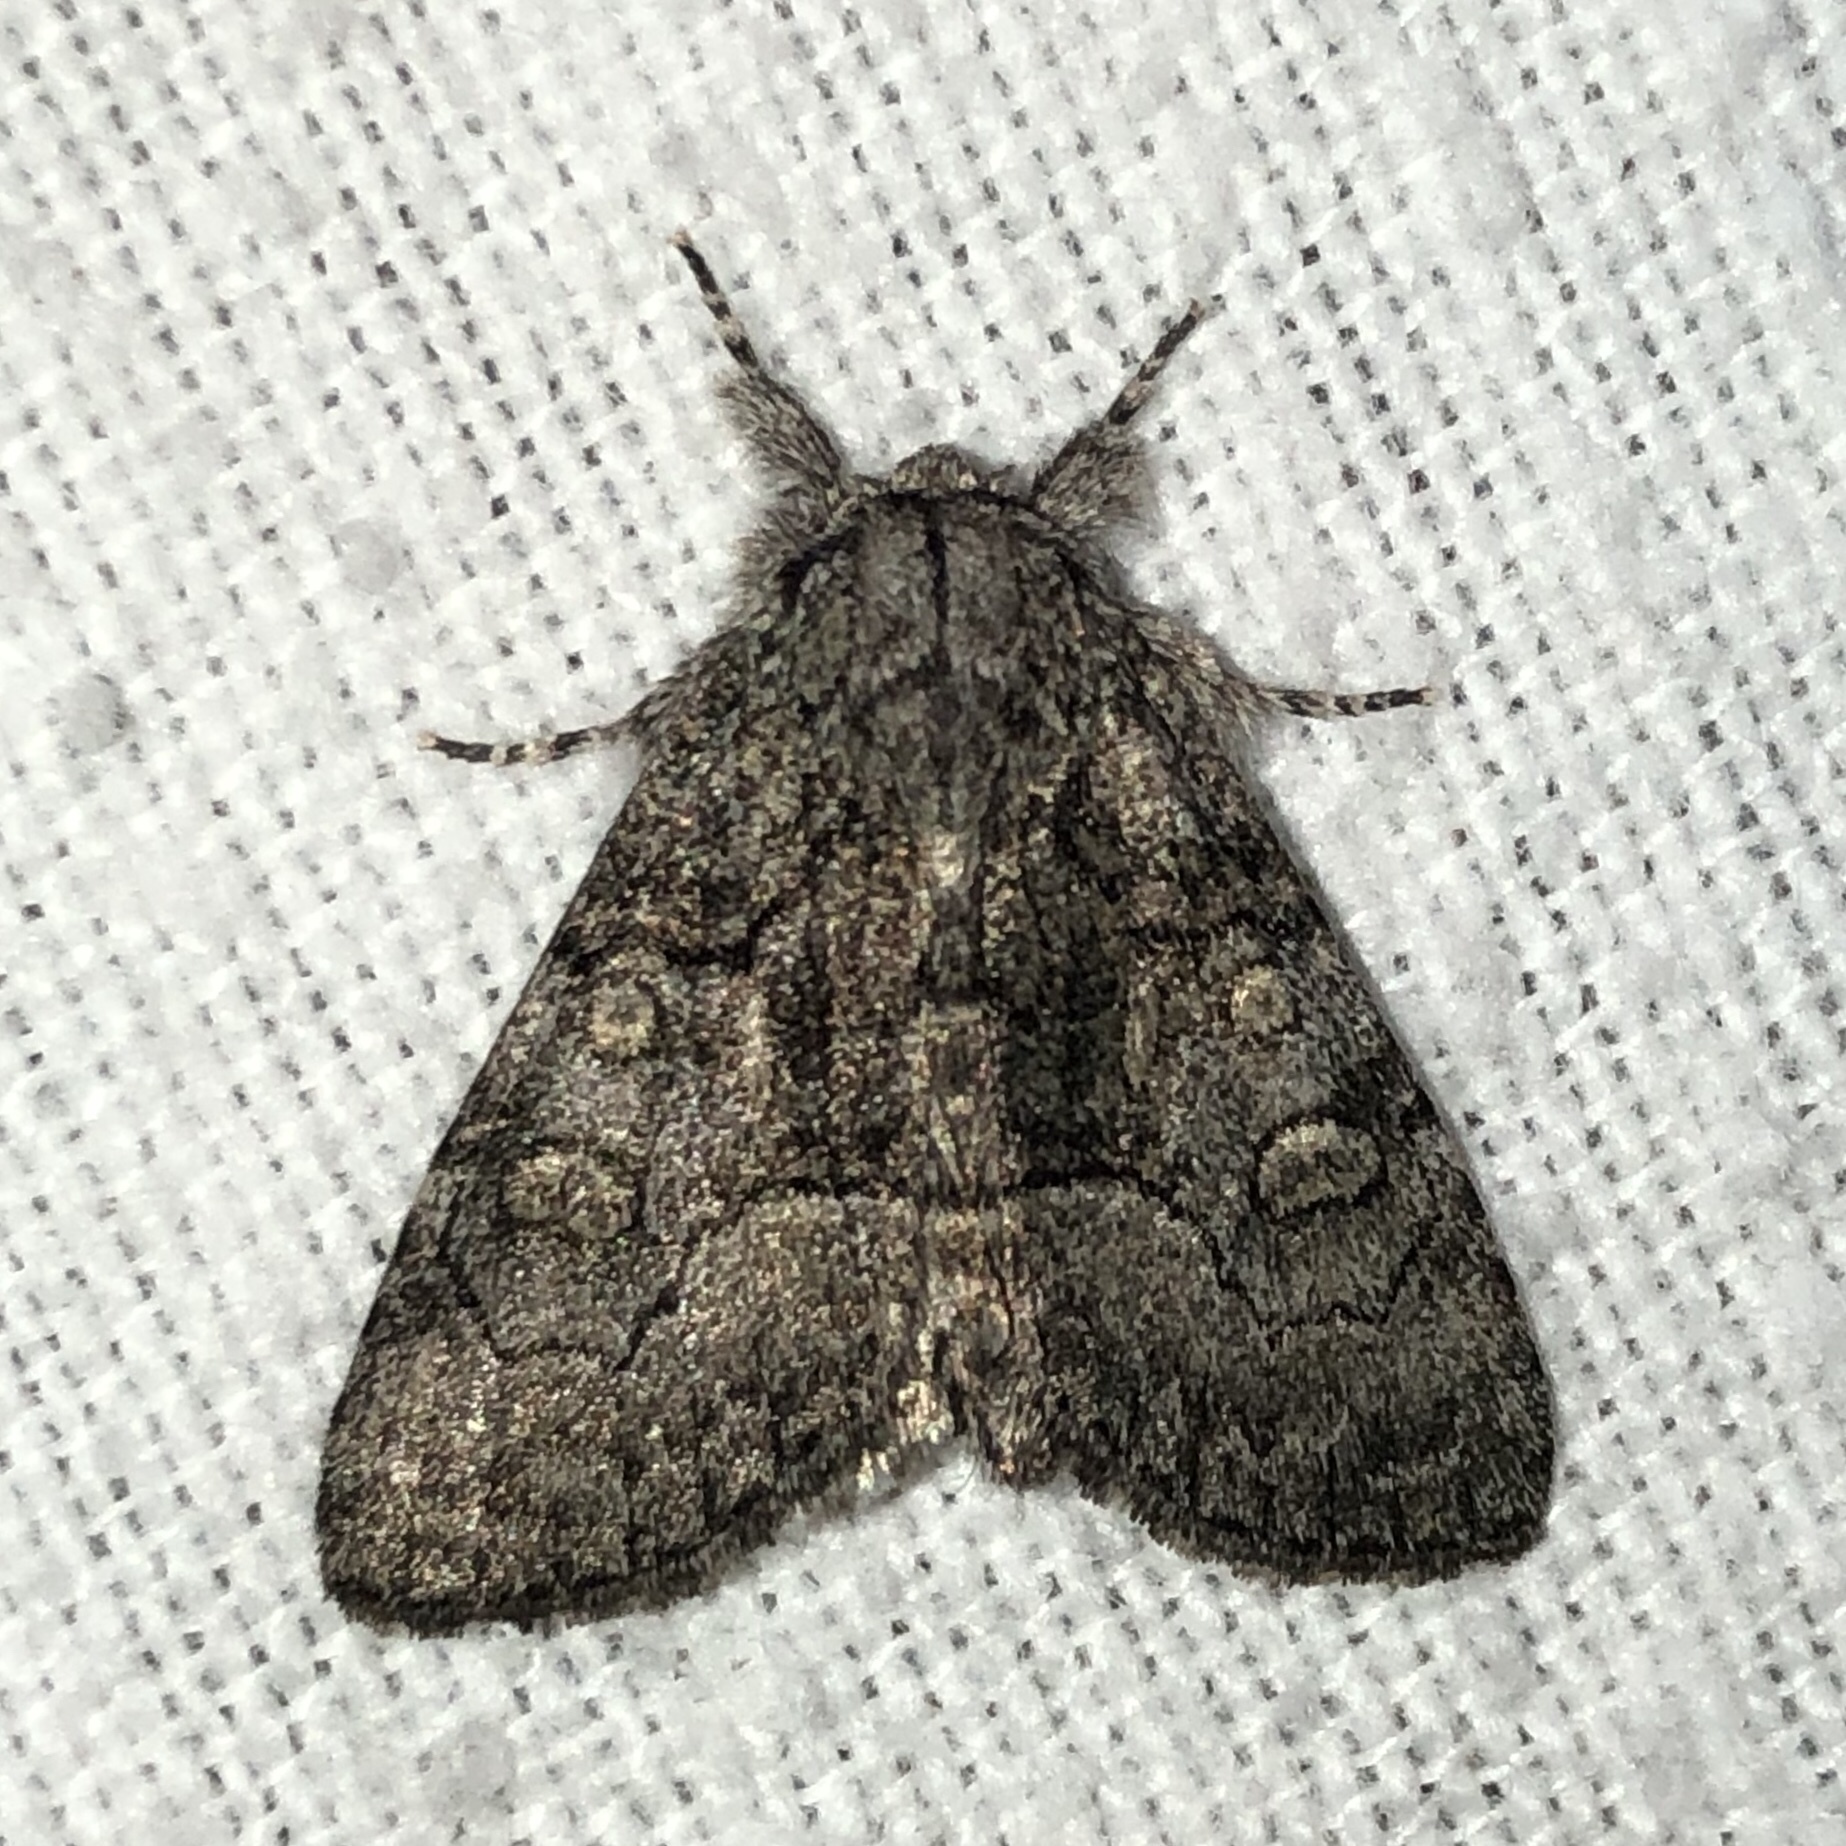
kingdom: Animalia
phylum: Arthropoda
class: Insecta
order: Lepidoptera
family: Noctuidae
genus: Raphia
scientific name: Raphia frater
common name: Brother
